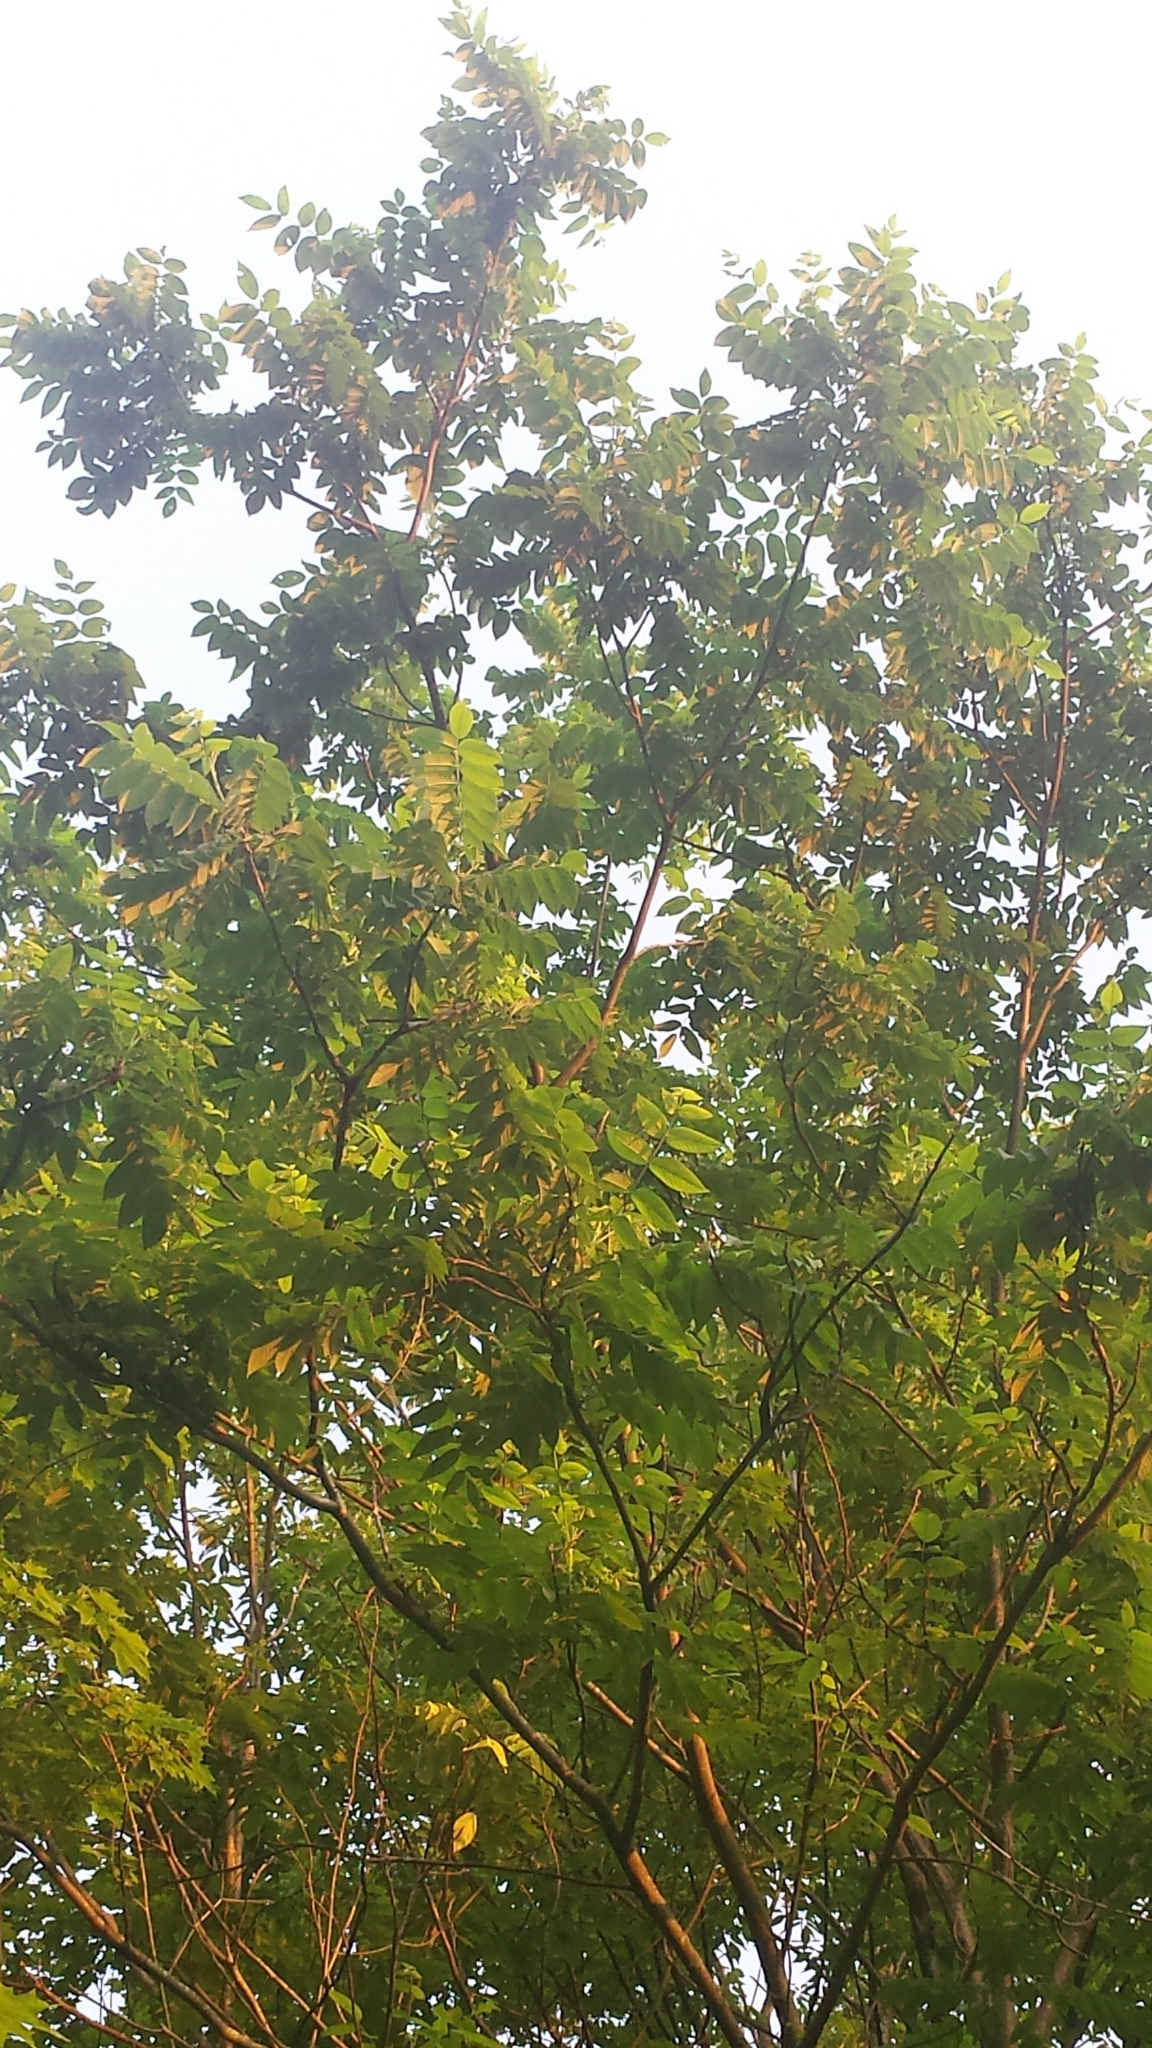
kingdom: Fungi
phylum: Ascomycota
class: Sordariomycetes
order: Diaporthales
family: Gnomoniaceae
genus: Ophiognomonia
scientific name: Ophiognomonia clavigignenti-juglandacearum
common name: Butternut canker fungus
